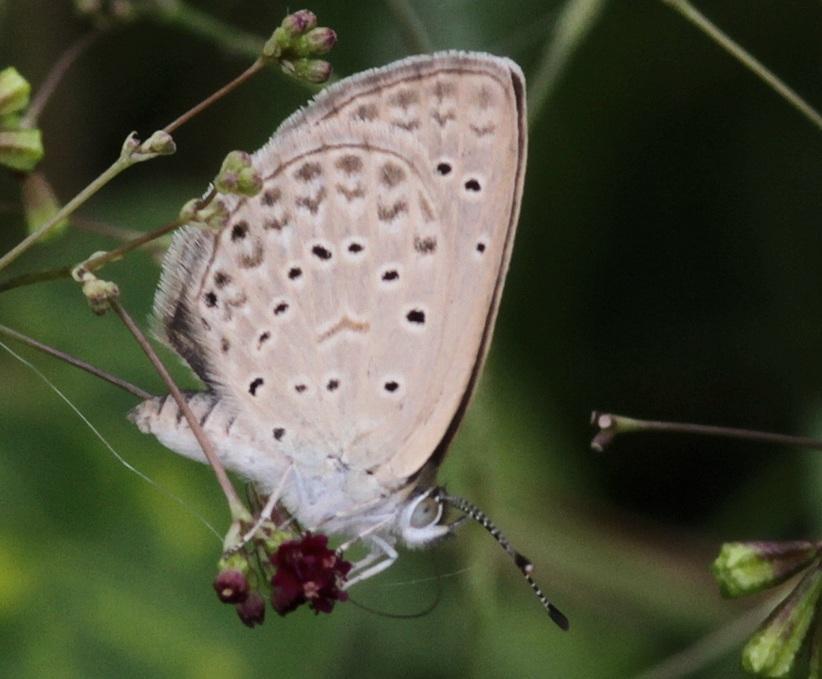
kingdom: Animalia
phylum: Arthropoda
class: Insecta
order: Lepidoptera
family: Lycaenidae
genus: Zizeeria
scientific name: Zizeeria knysna
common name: African grass blue
